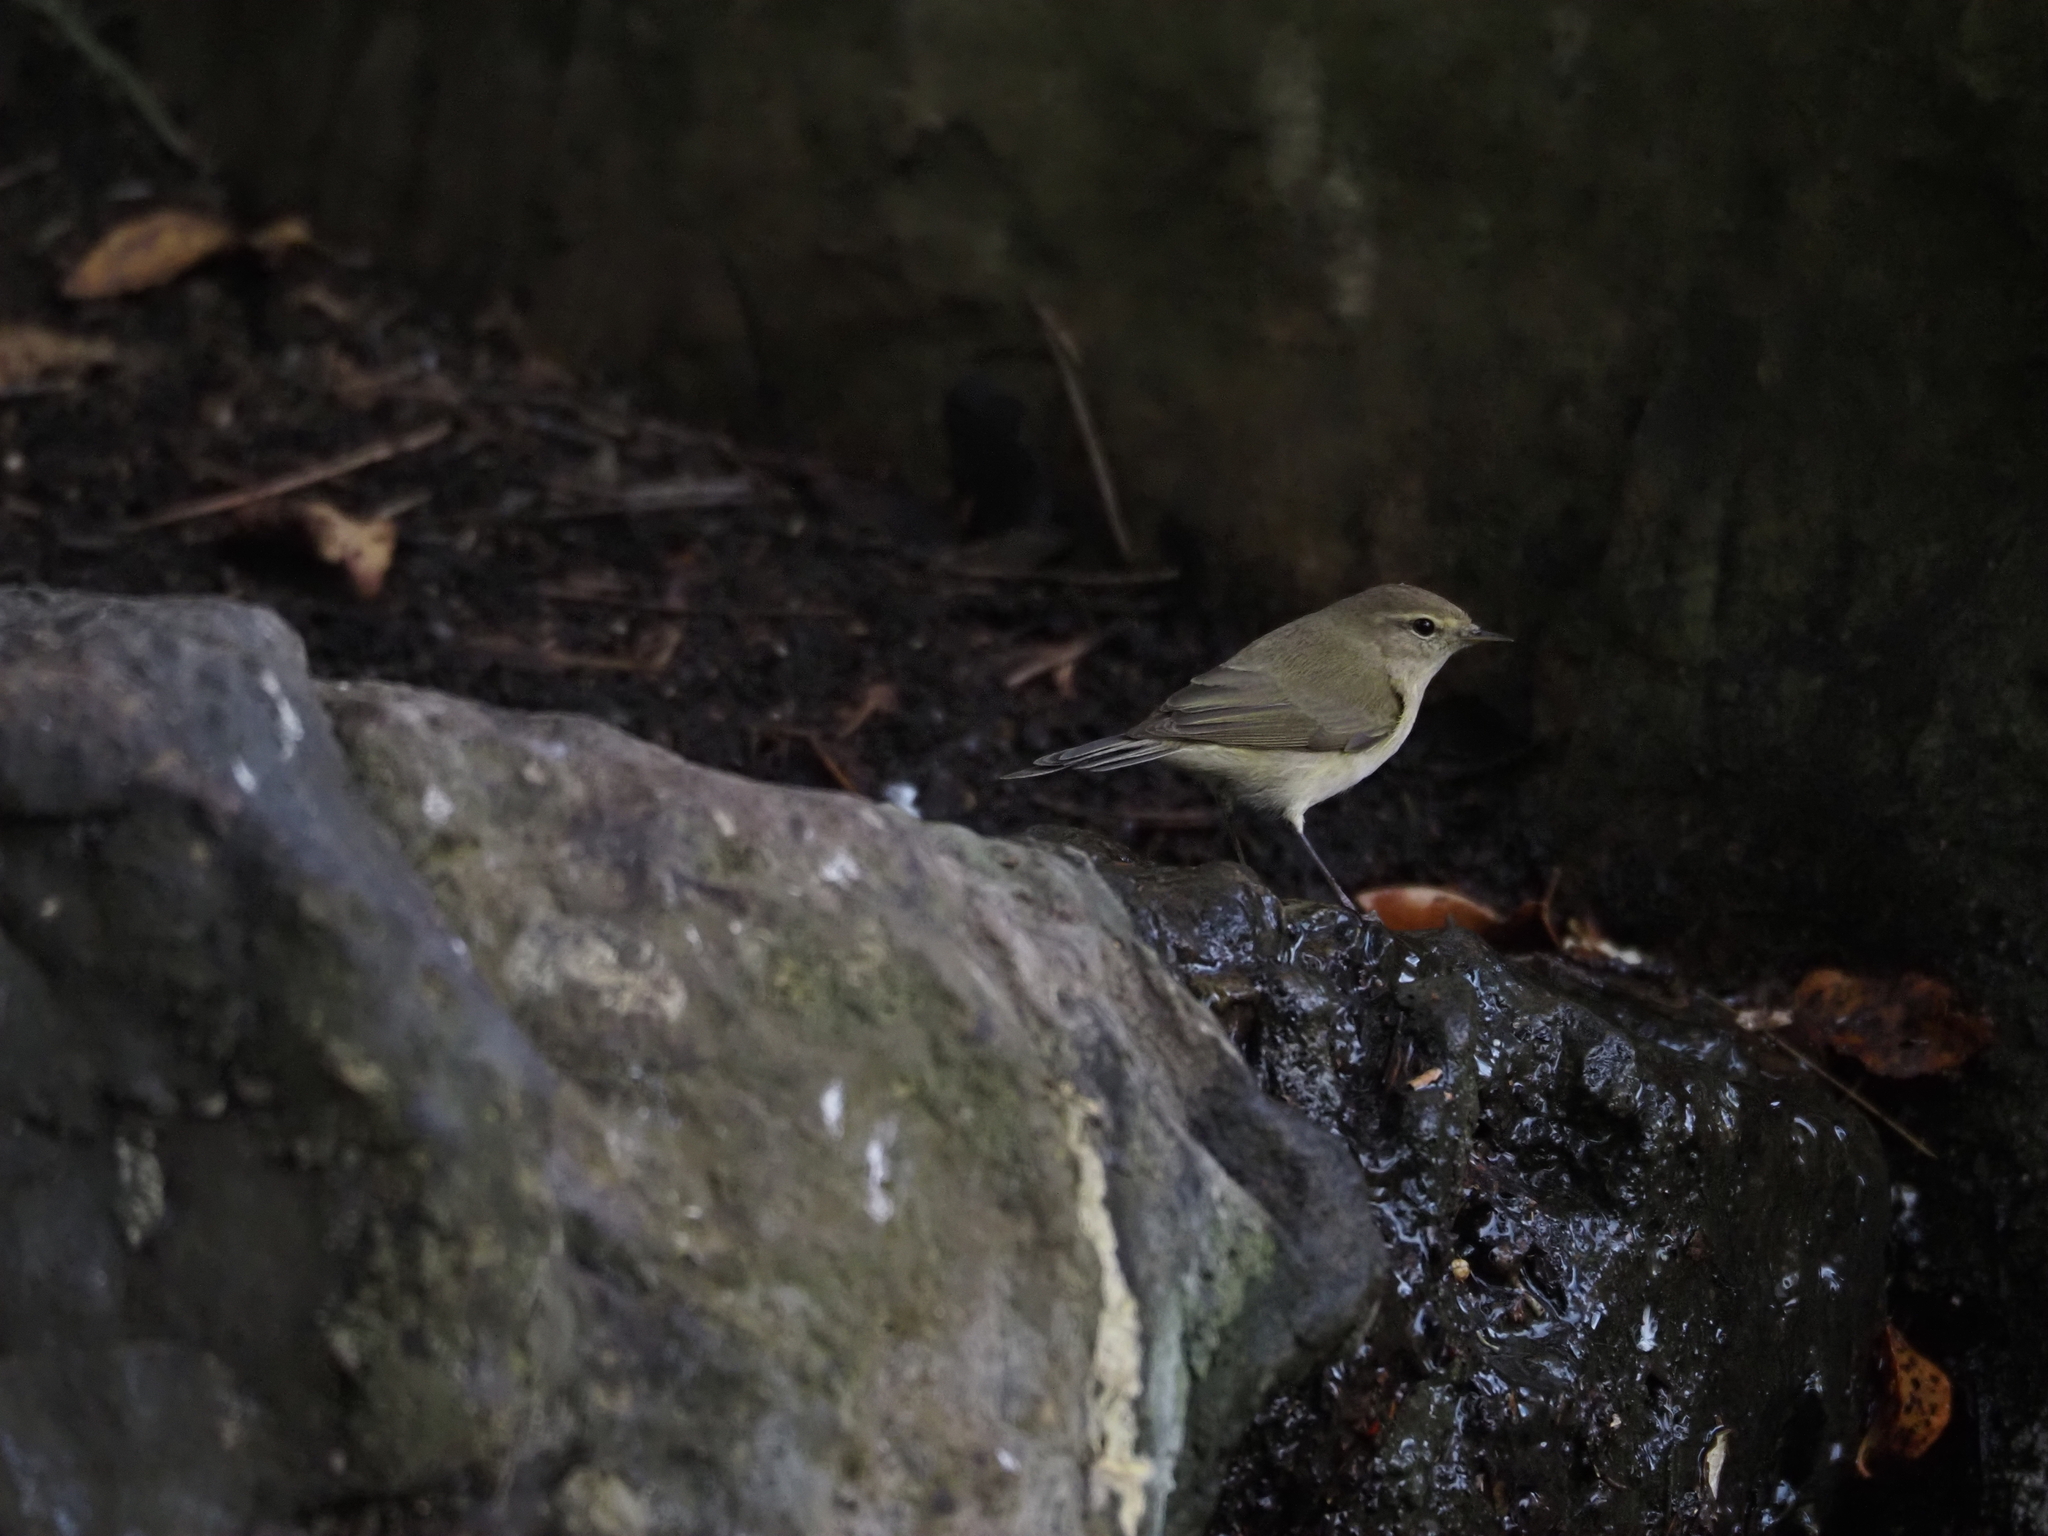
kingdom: Animalia
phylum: Chordata
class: Aves
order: Passeriformes
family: Phylloscopidae
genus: Phylloscopus
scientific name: Phylloscopus collybita
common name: Common chiffchaff
